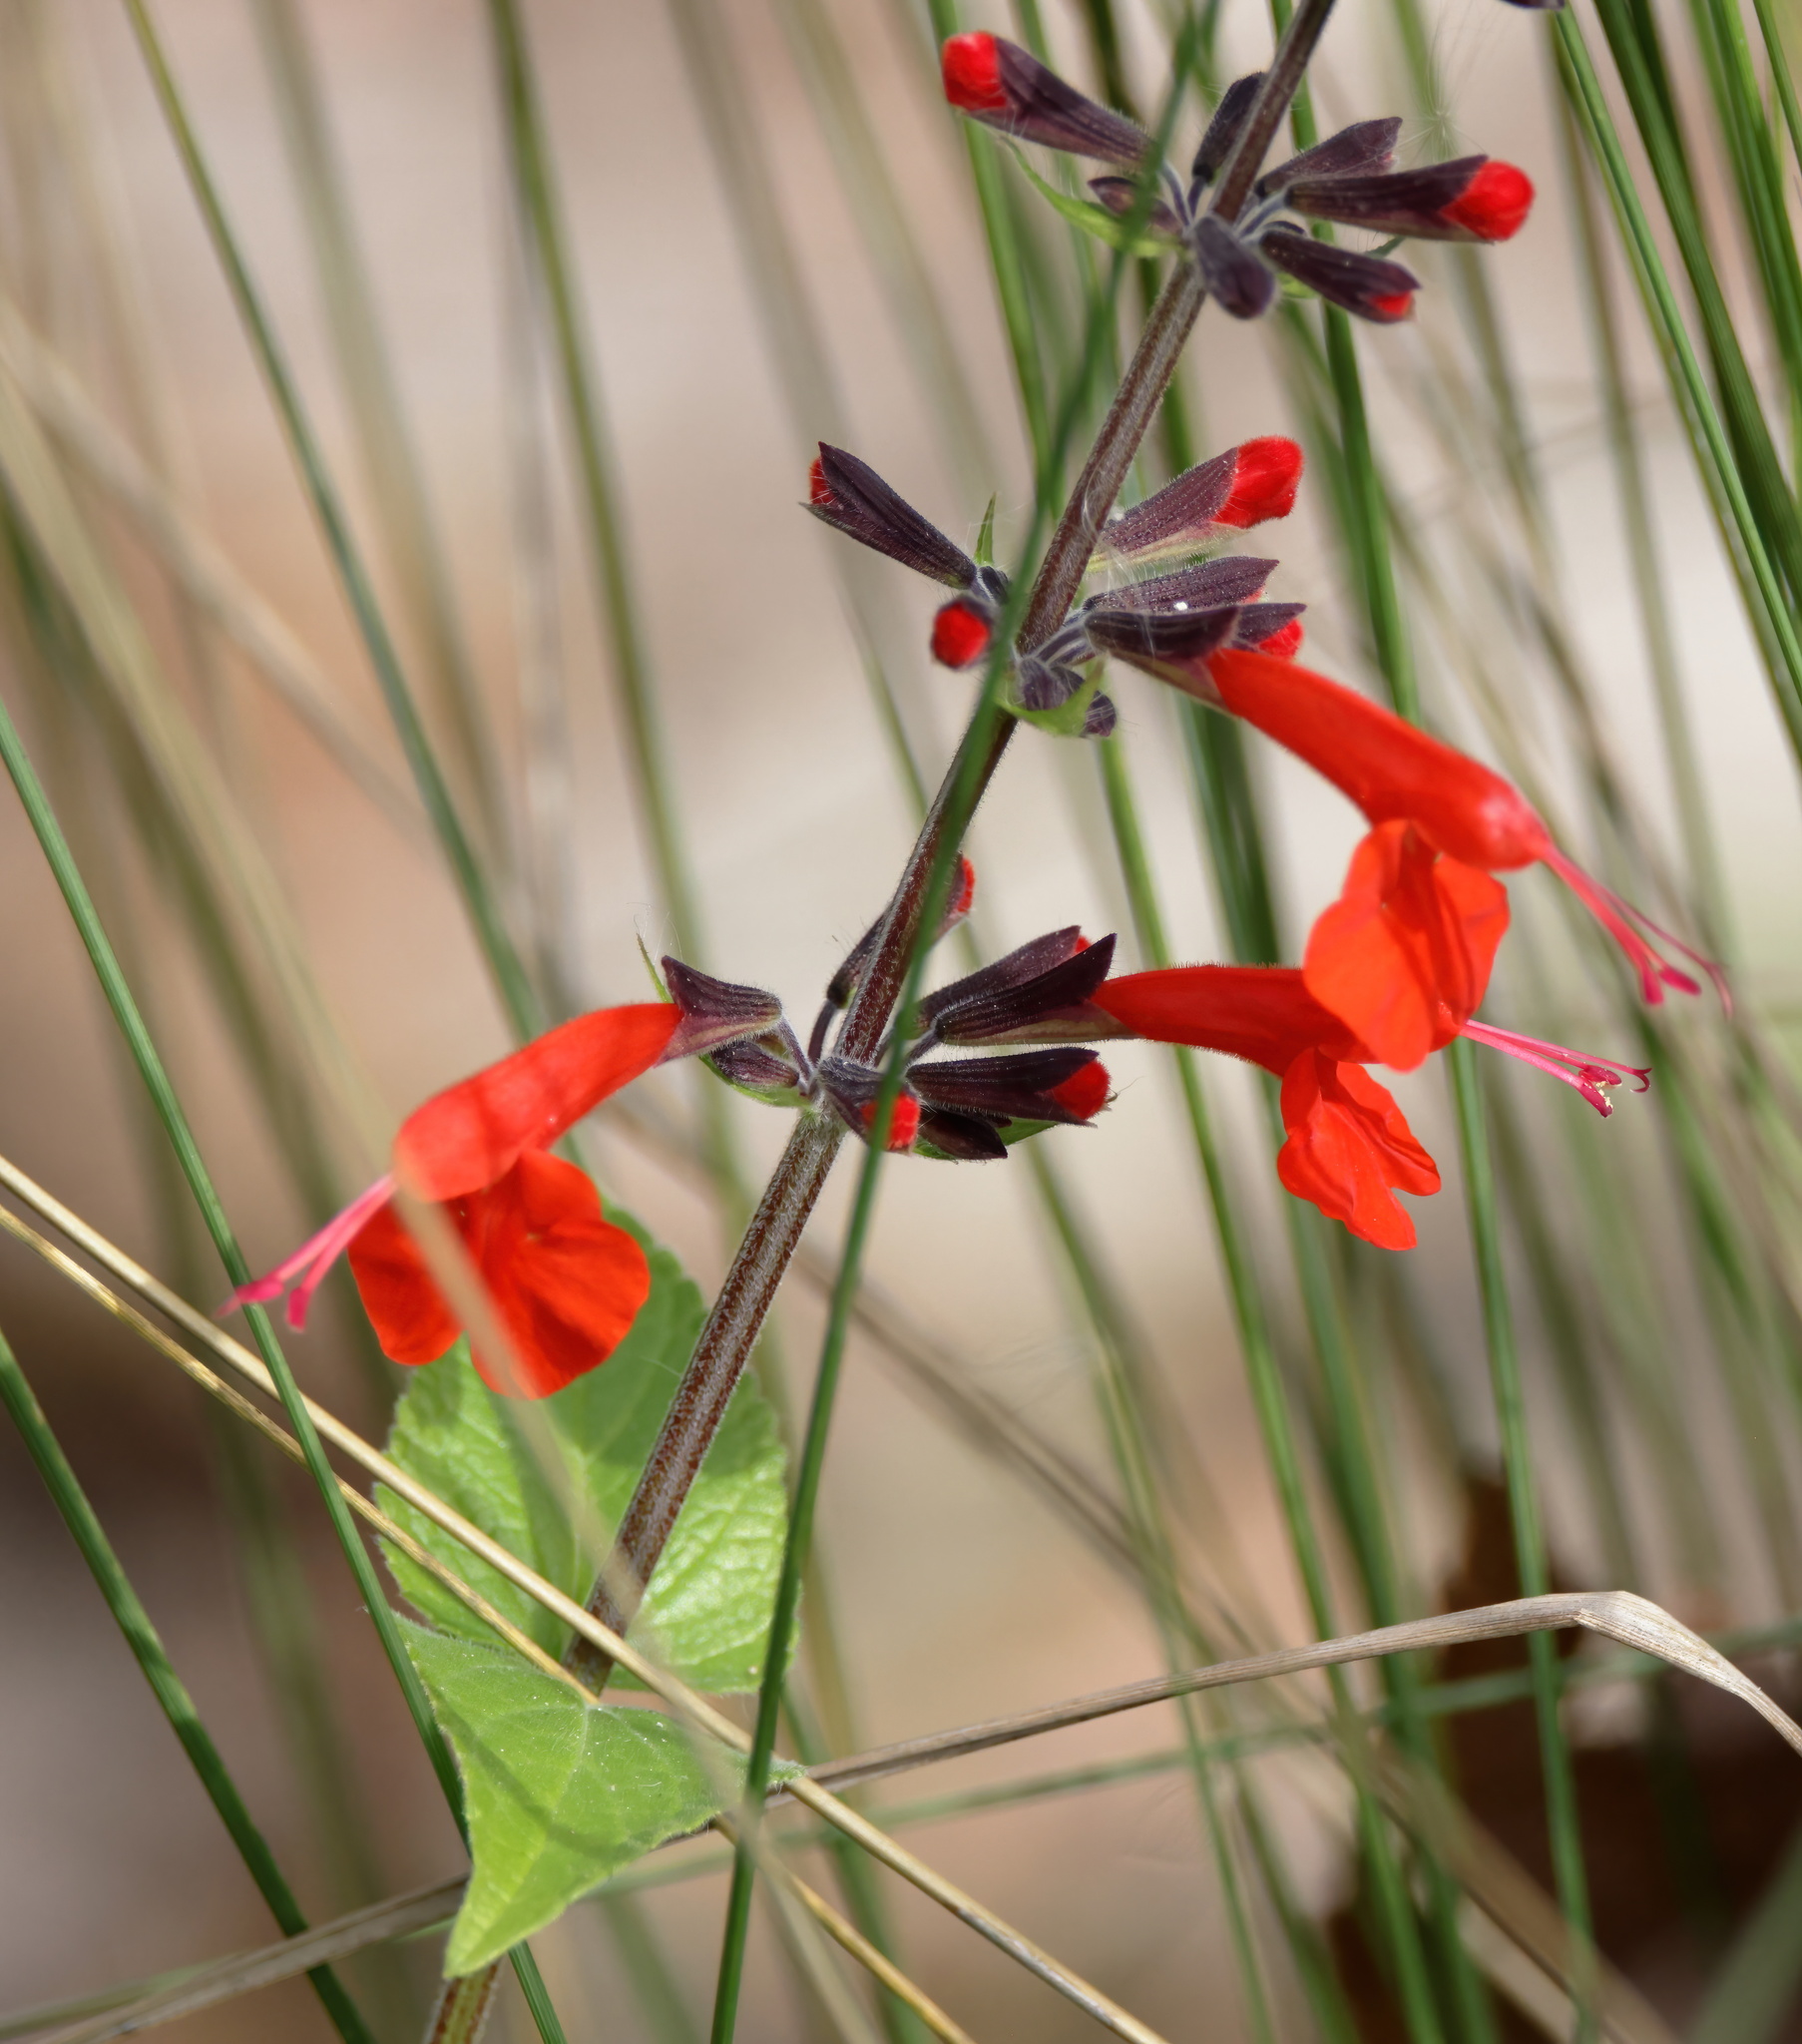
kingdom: Plantae
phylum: Tracheophyta
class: Magnoliopsida
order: Lamiales
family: Lamiaceae
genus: Salvia
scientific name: Salvia coccinea
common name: Blood sage
